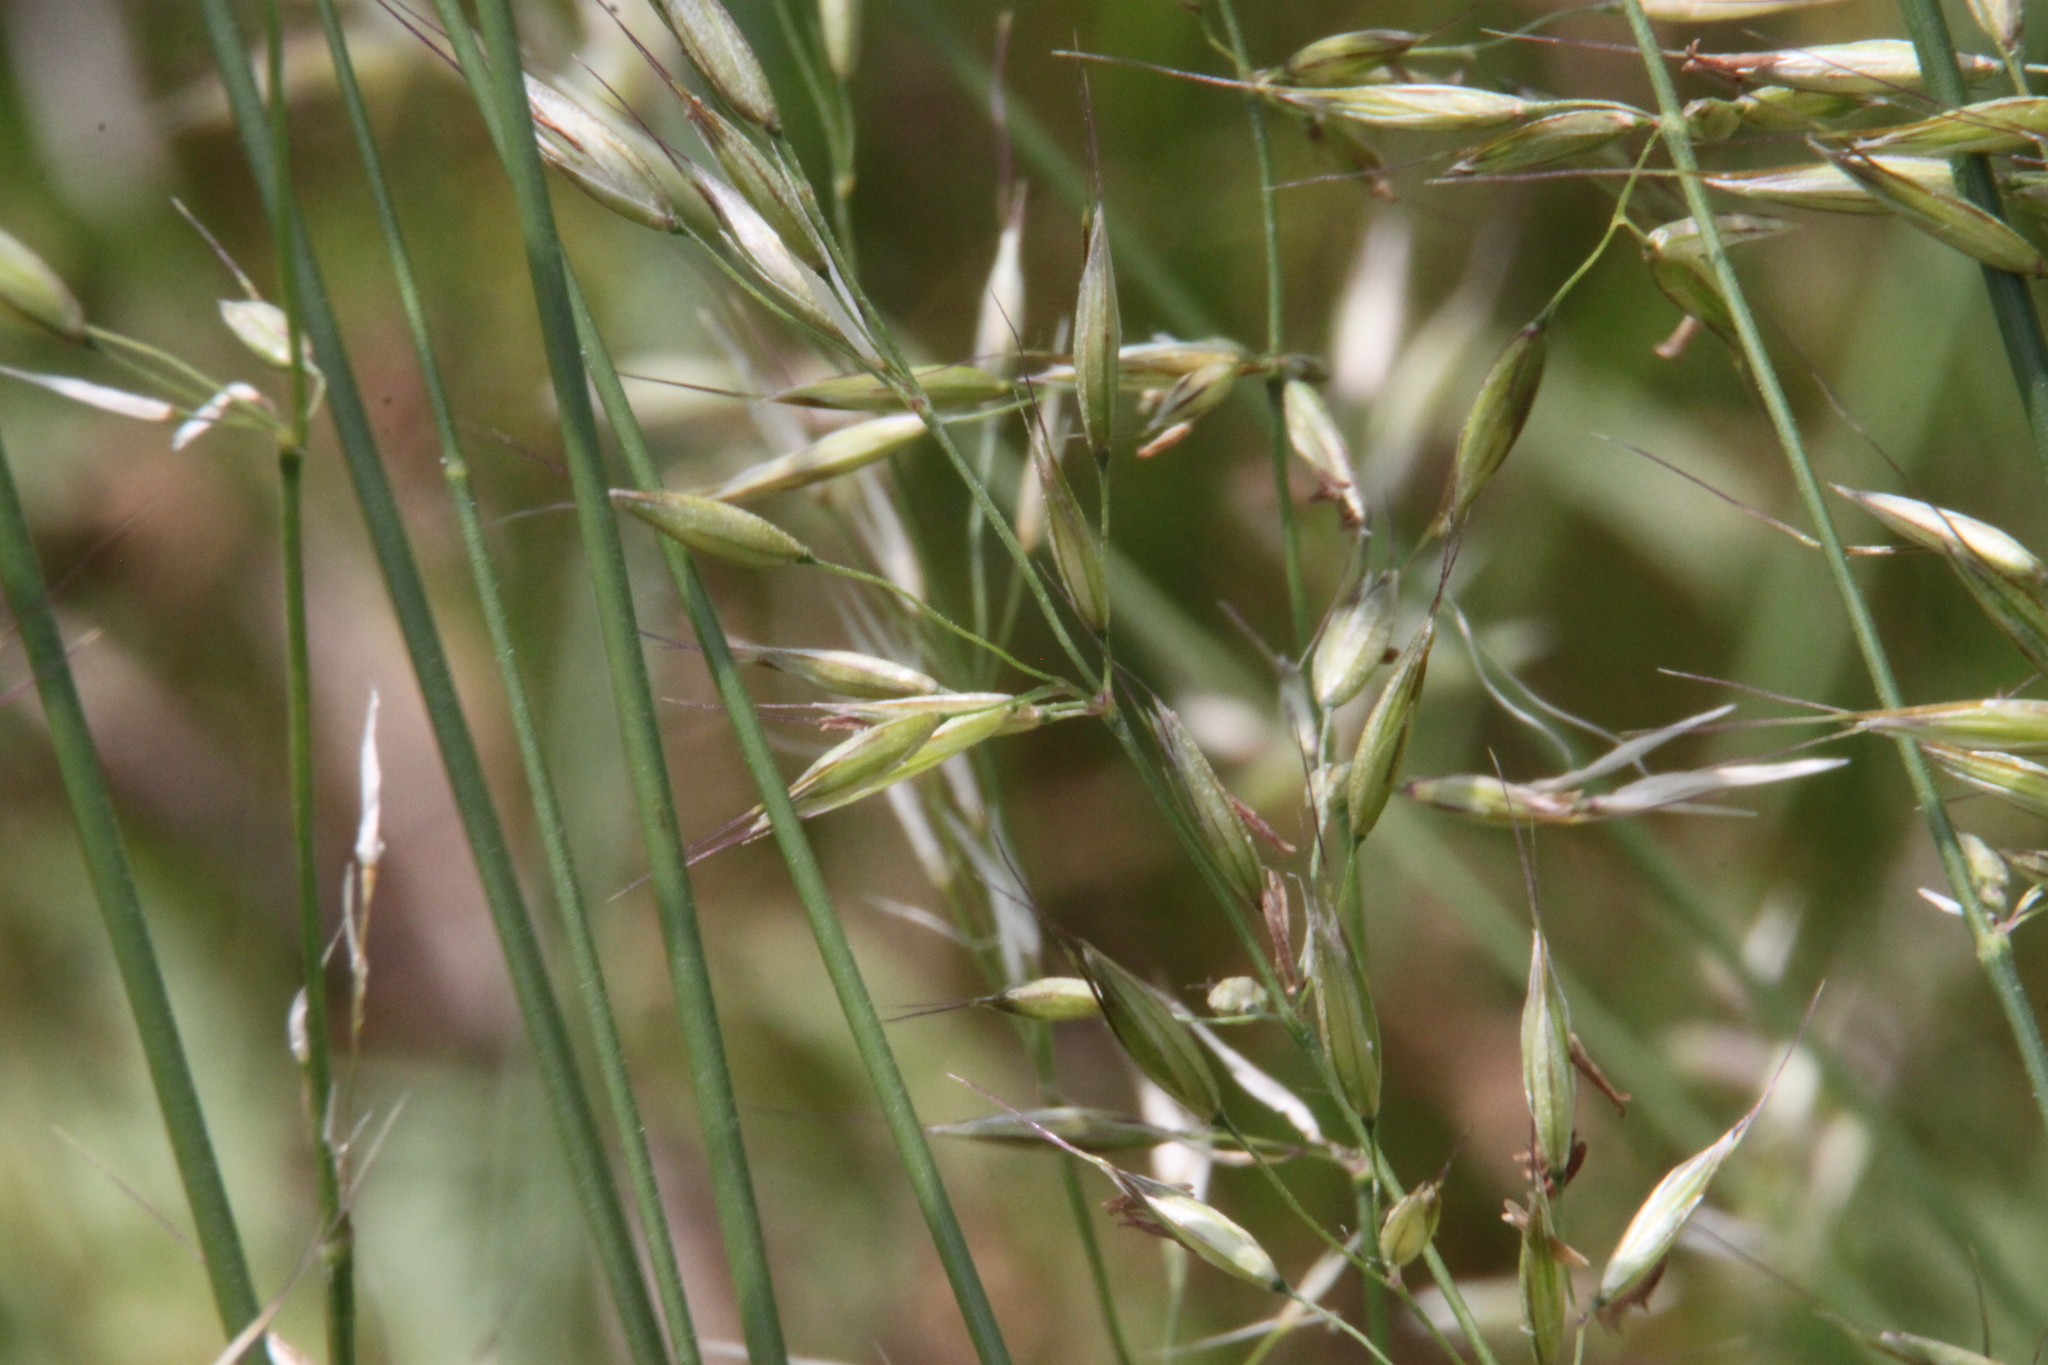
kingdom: Plantae
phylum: Tracheophyta
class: Liliopsida
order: Poales
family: Poaceae
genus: Arrhenatherum
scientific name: Arrhenatherum elatius
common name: Tall oatgrass
